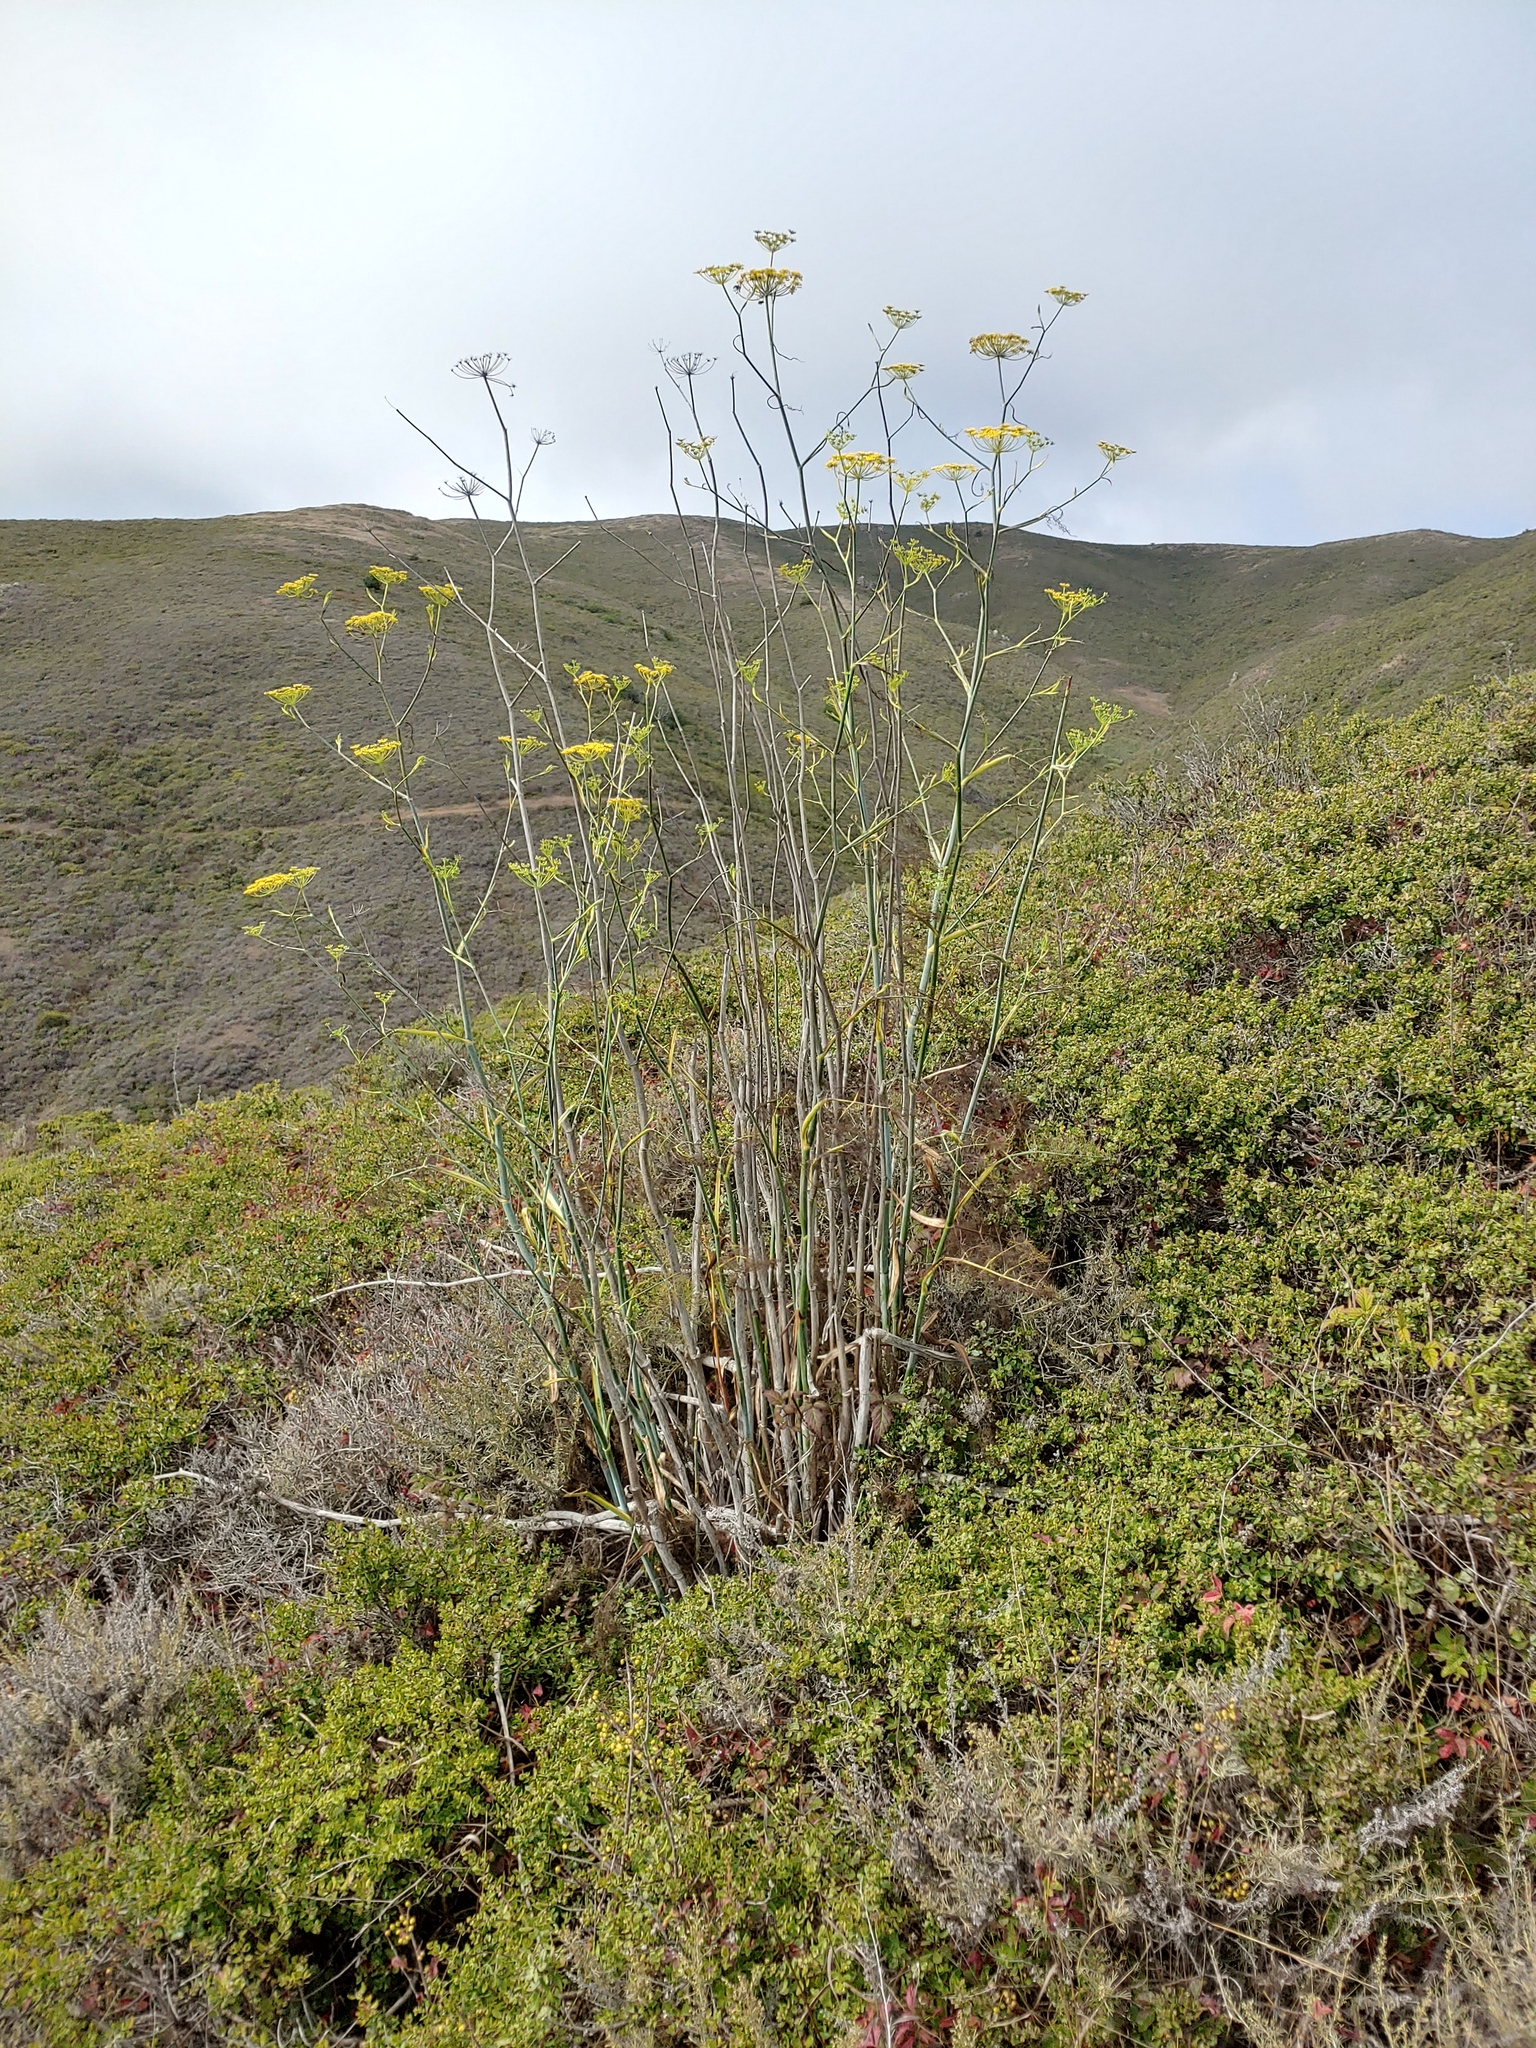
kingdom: Plantae
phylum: Tracheophyta
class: Magnoliopsida
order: Apiales
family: Apiaceae
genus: Foeniculum
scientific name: Foeniculum vulgare
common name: Fennel
